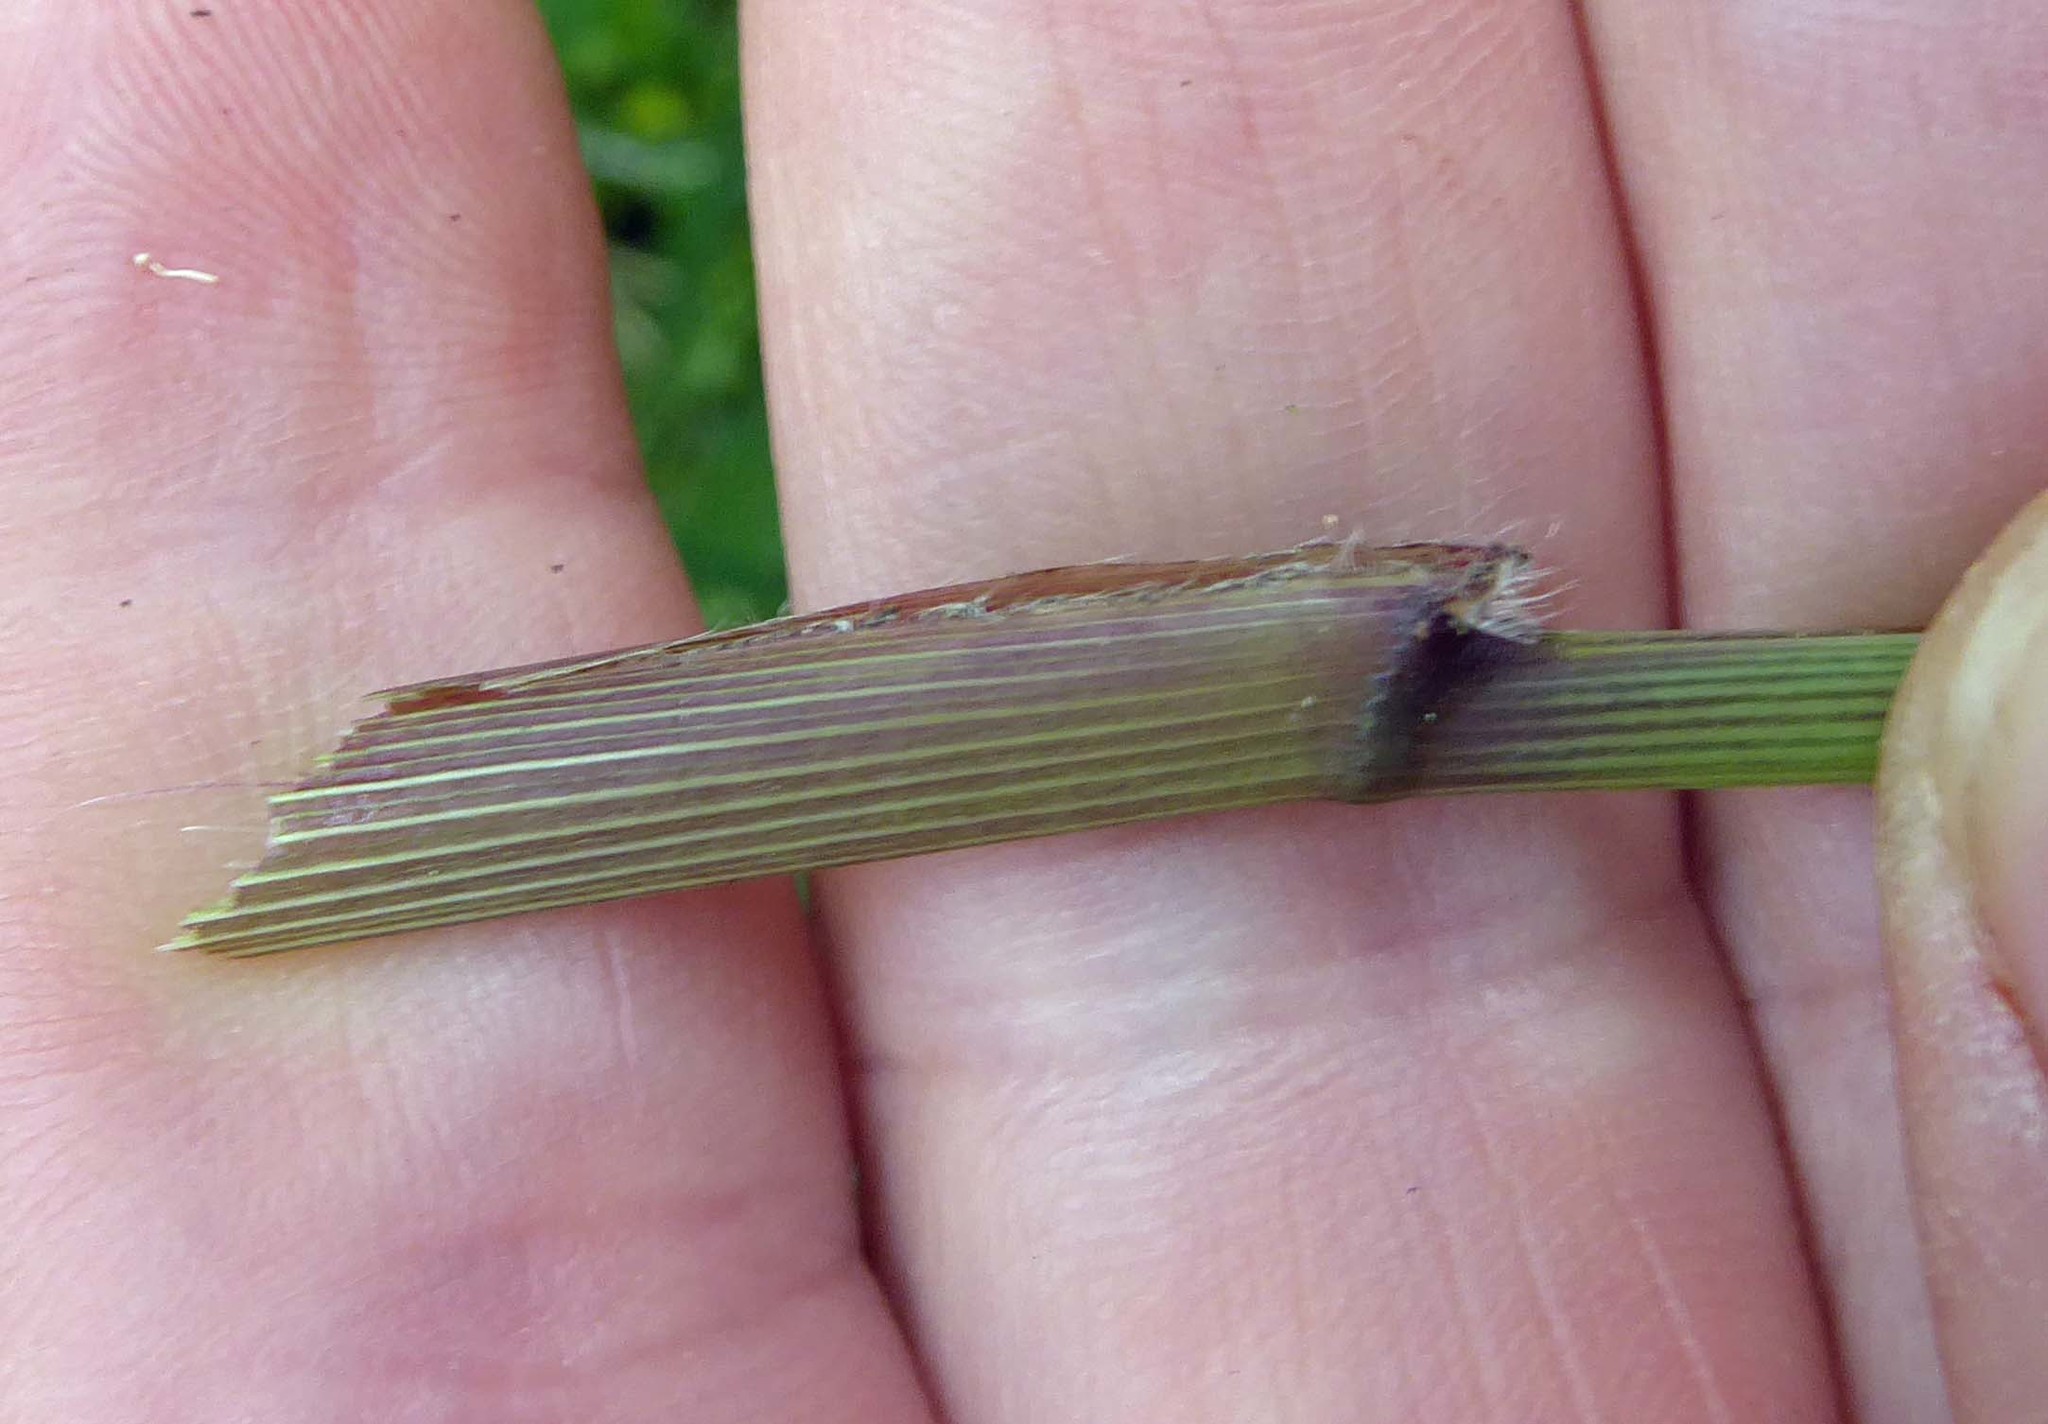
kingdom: Plantae
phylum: Tracheophyta
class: Liliopsida
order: Poales
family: Poaceae
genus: Cenchrus
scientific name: Cenchrus latifolius
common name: Sandbur
